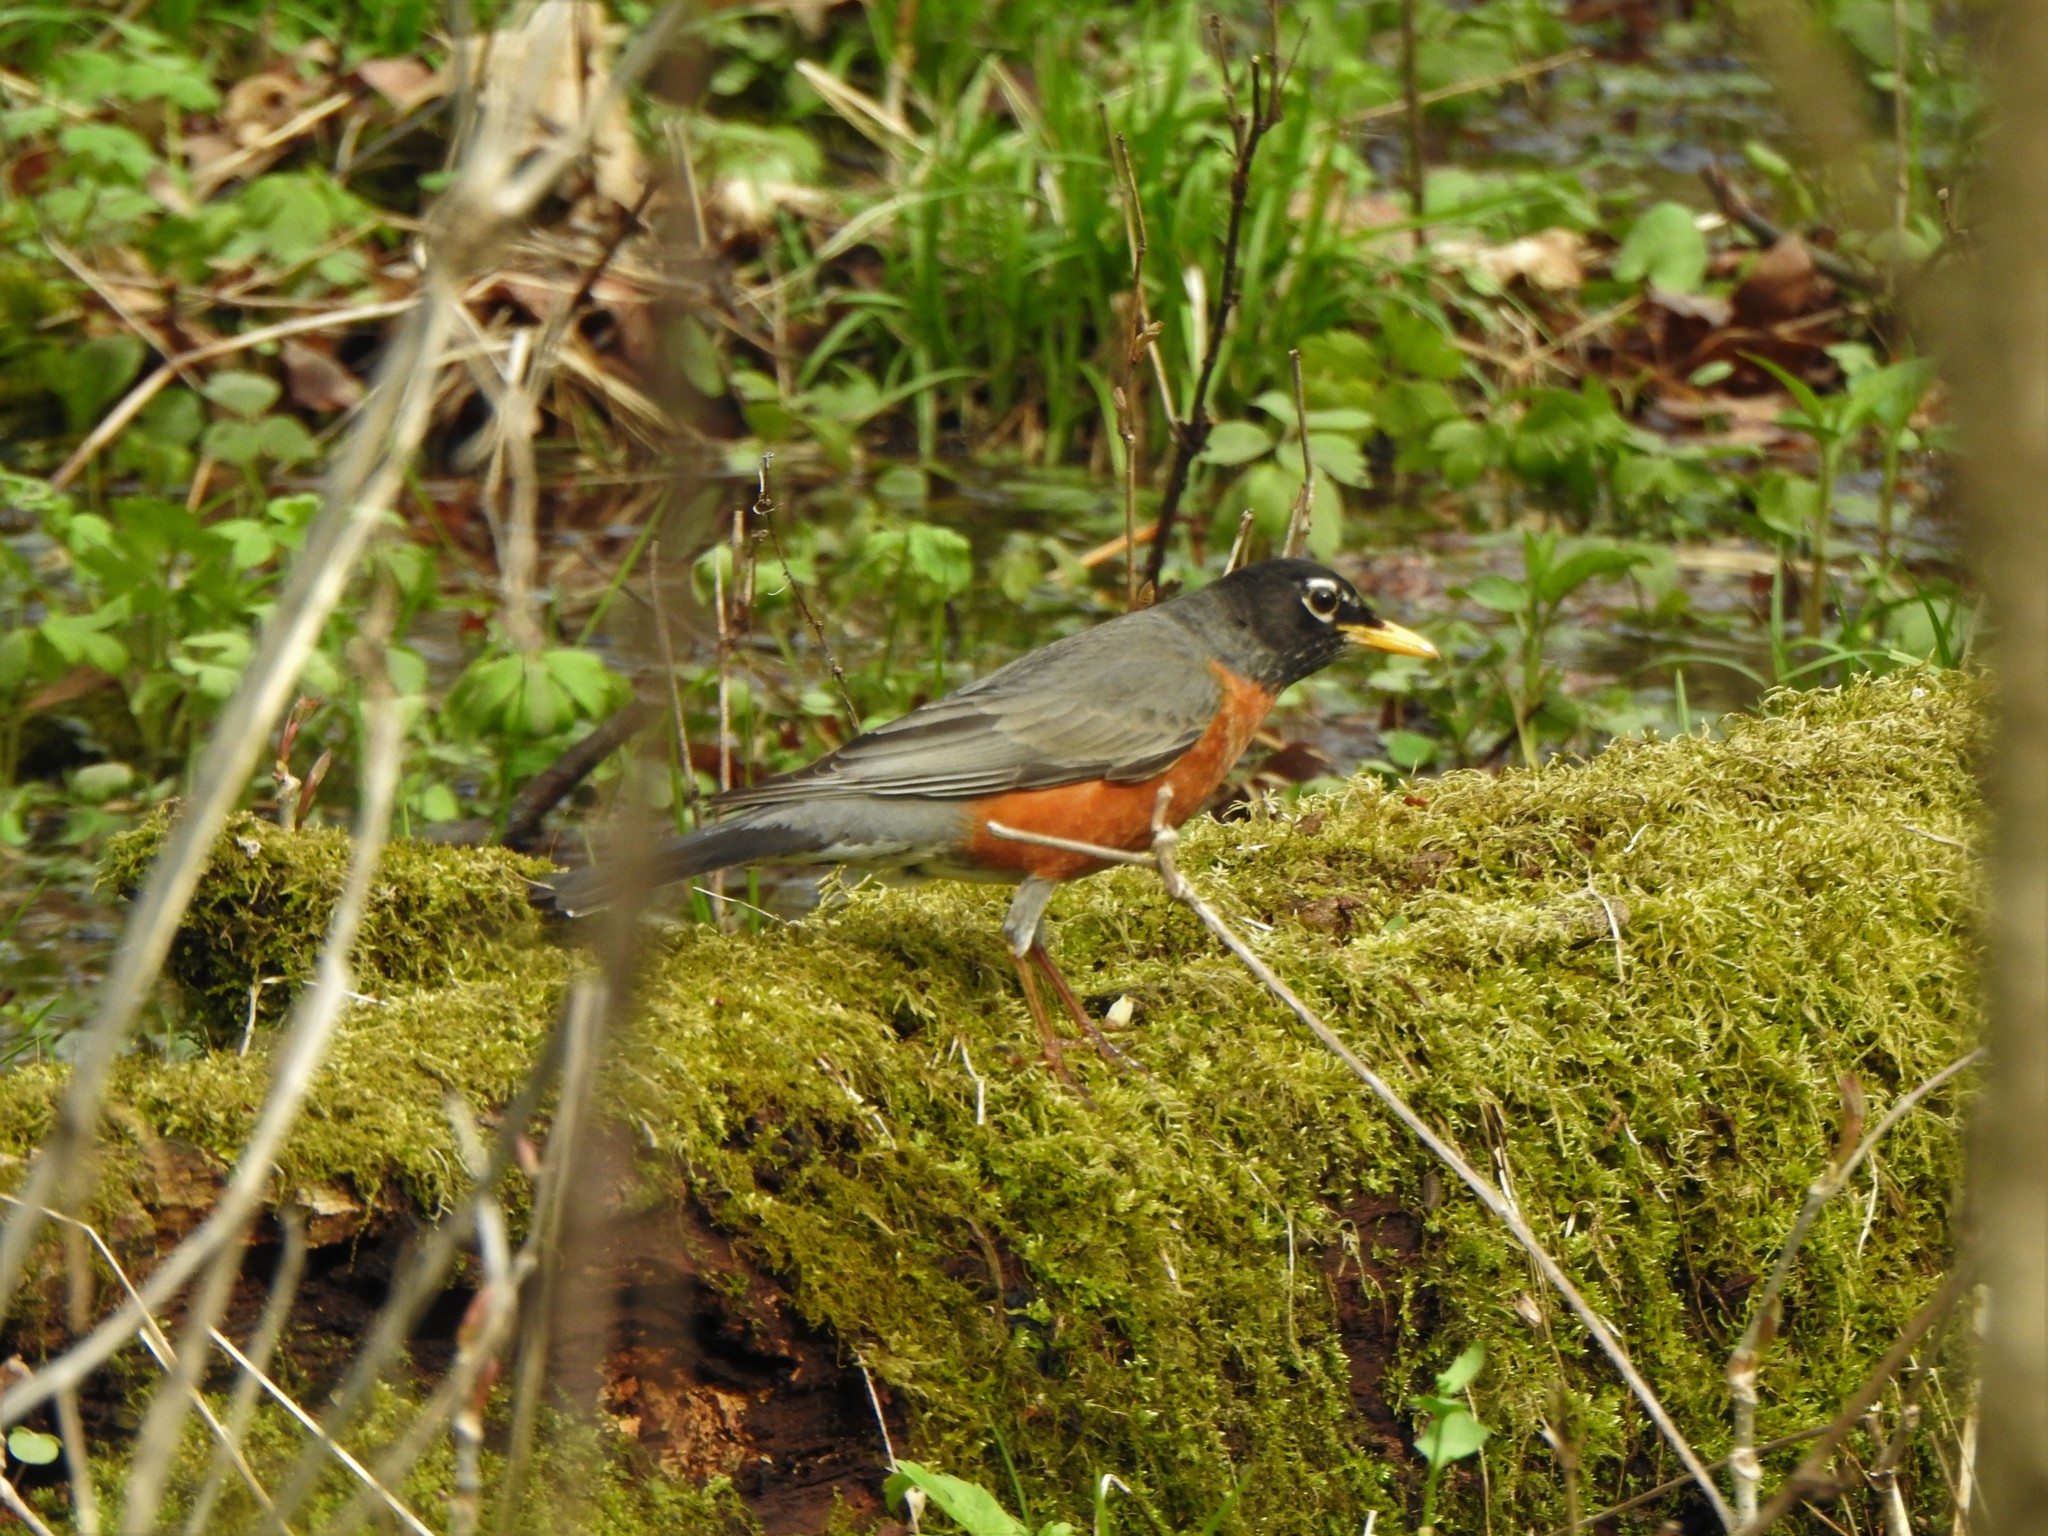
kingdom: Animalia
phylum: Chordata
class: Aves
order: Passeriformes
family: Turdidae
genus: Turdus
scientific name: Turdus migratorius
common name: American robin
